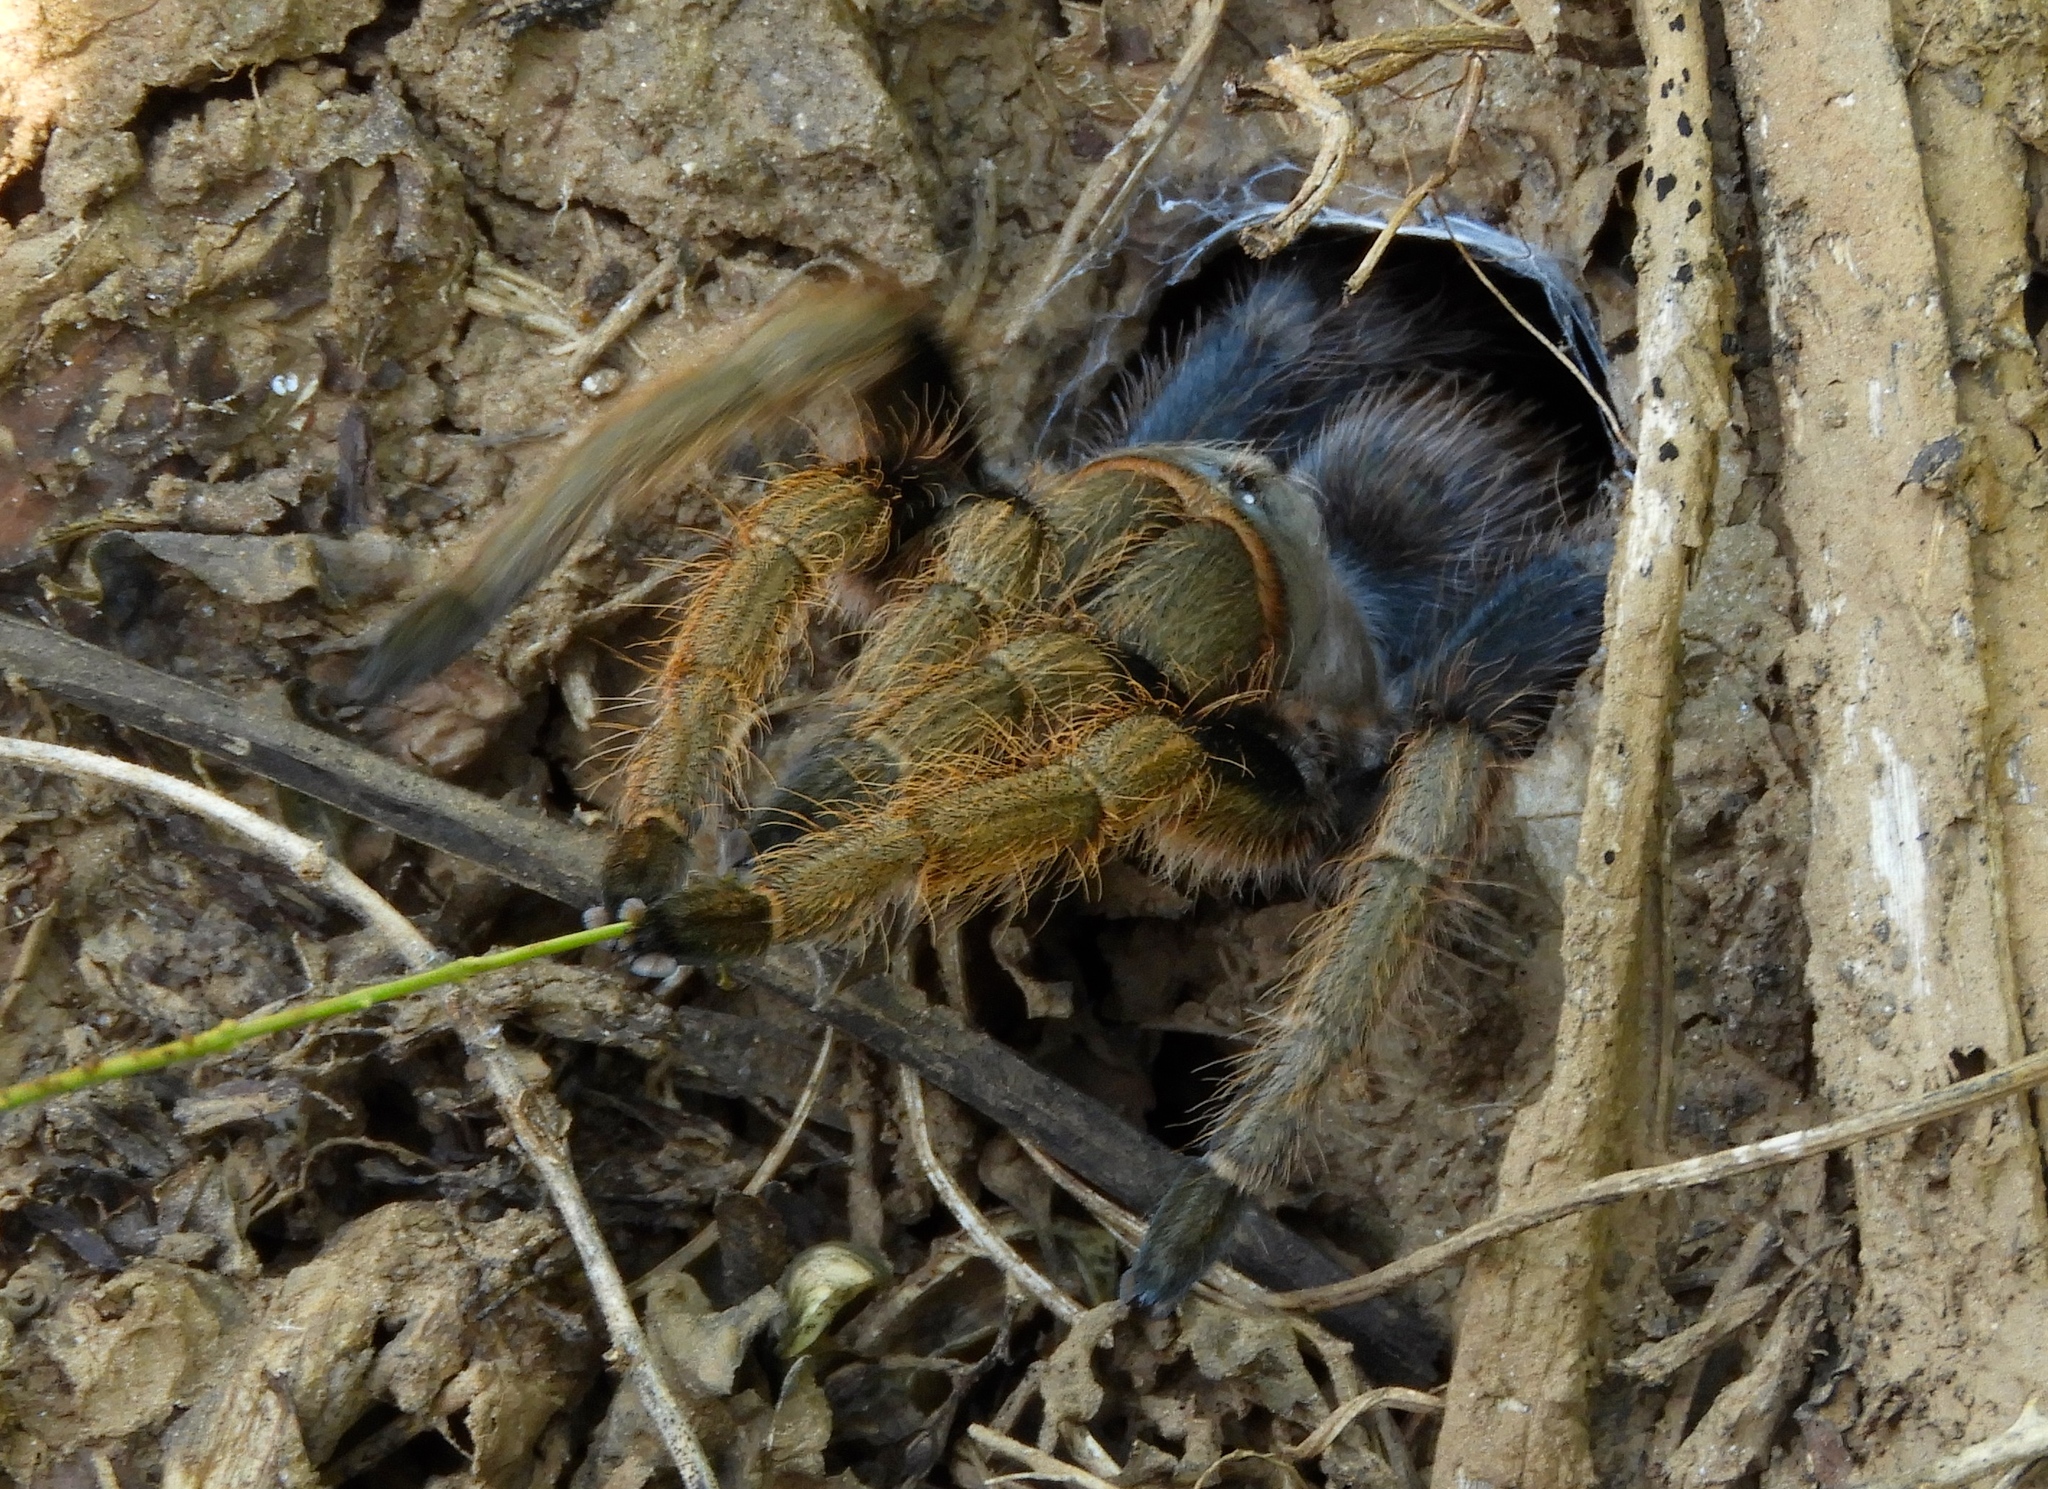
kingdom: Animalia
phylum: Arthropoda
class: Arachnida
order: Araneae
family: Theraphosidae
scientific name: Theraphosidae
